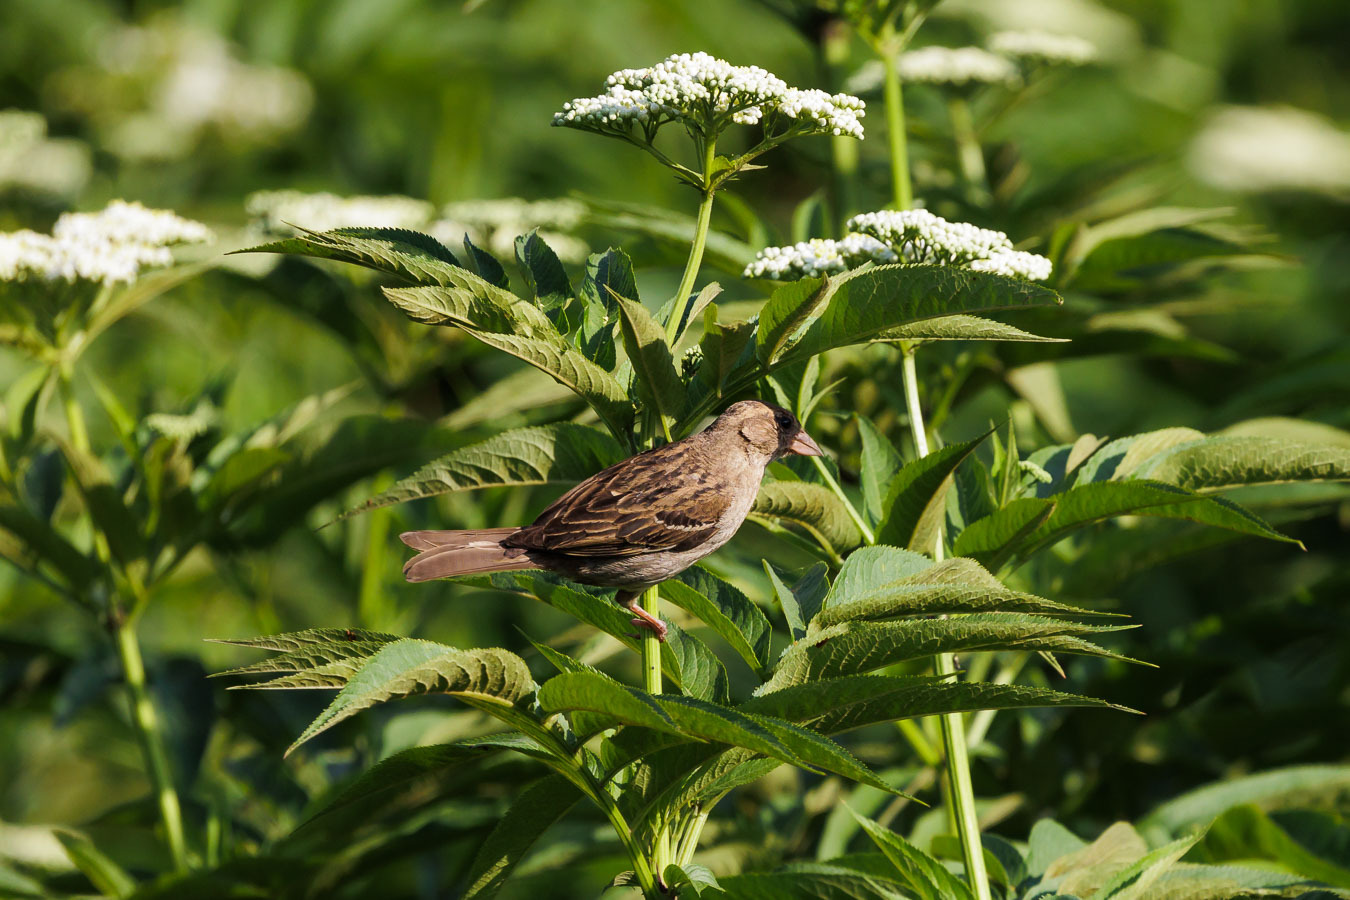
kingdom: Animalia
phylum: Chordata
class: Aves
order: Passeriformes
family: Passeridae
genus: Passer
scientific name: Passer domesticus
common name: House sparrow
